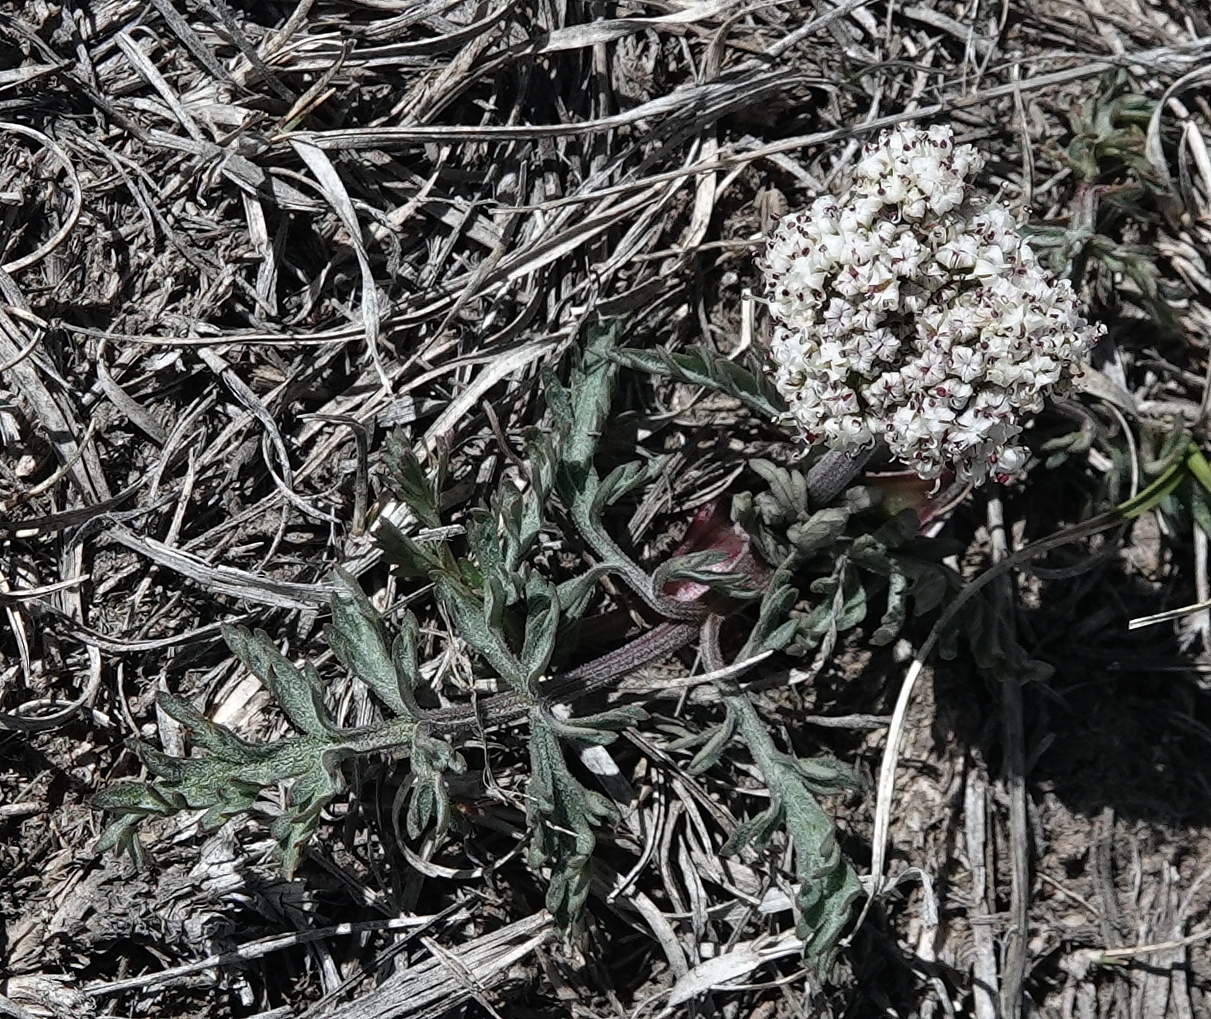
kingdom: Plantae
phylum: Tracheophyta
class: Magnoliopsida
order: Apiales
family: Apiaceae
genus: Lomatium
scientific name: Lomatium orientale
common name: Eastern cous
